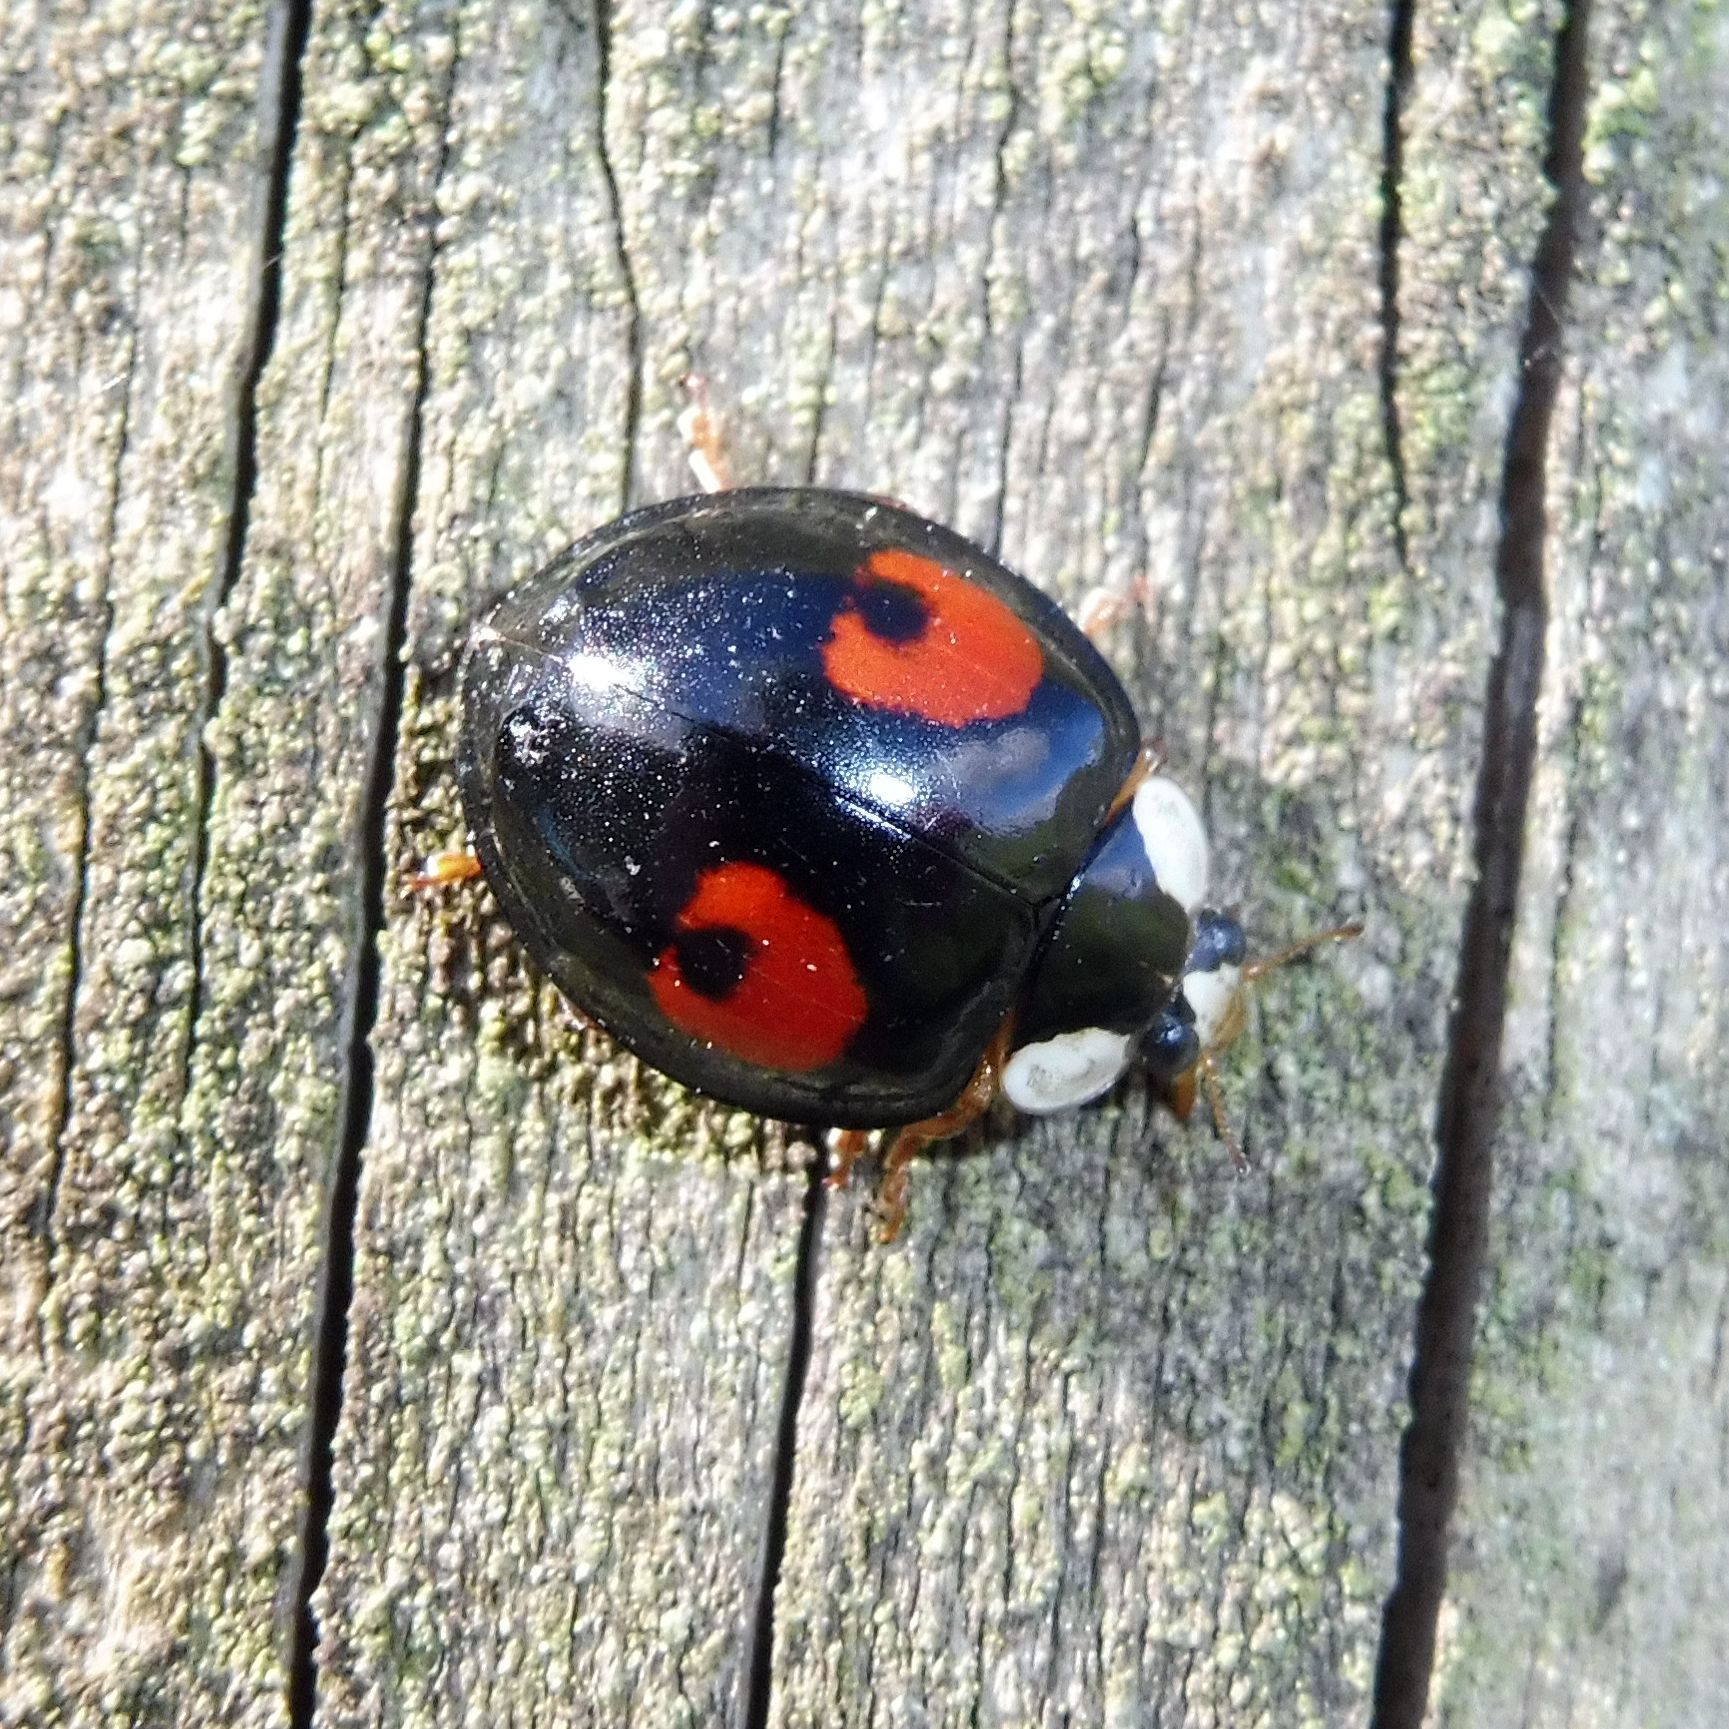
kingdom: Animalia
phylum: Arthropoda
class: Insecta
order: Coleoptera
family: Coccinellidae
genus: Harmonia
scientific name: Harmonia axyridis
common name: Harlequin ladybird
